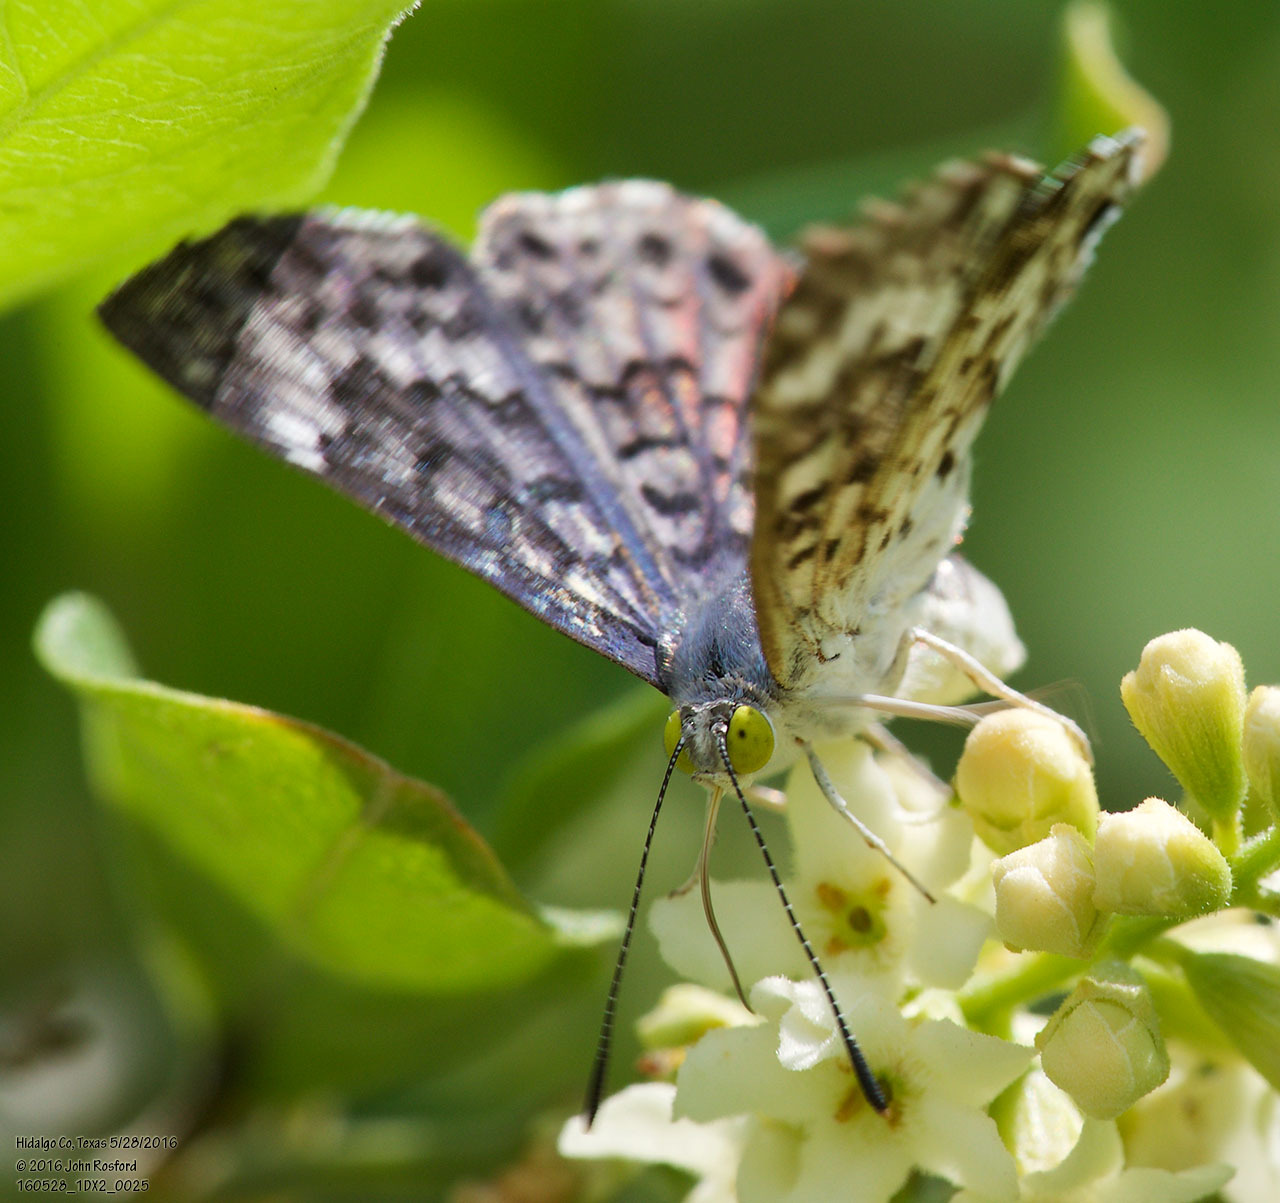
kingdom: Animalia
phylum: Arthropoda
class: Insecta
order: Lepidoptera
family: Riodinidae
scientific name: Riodinidae
